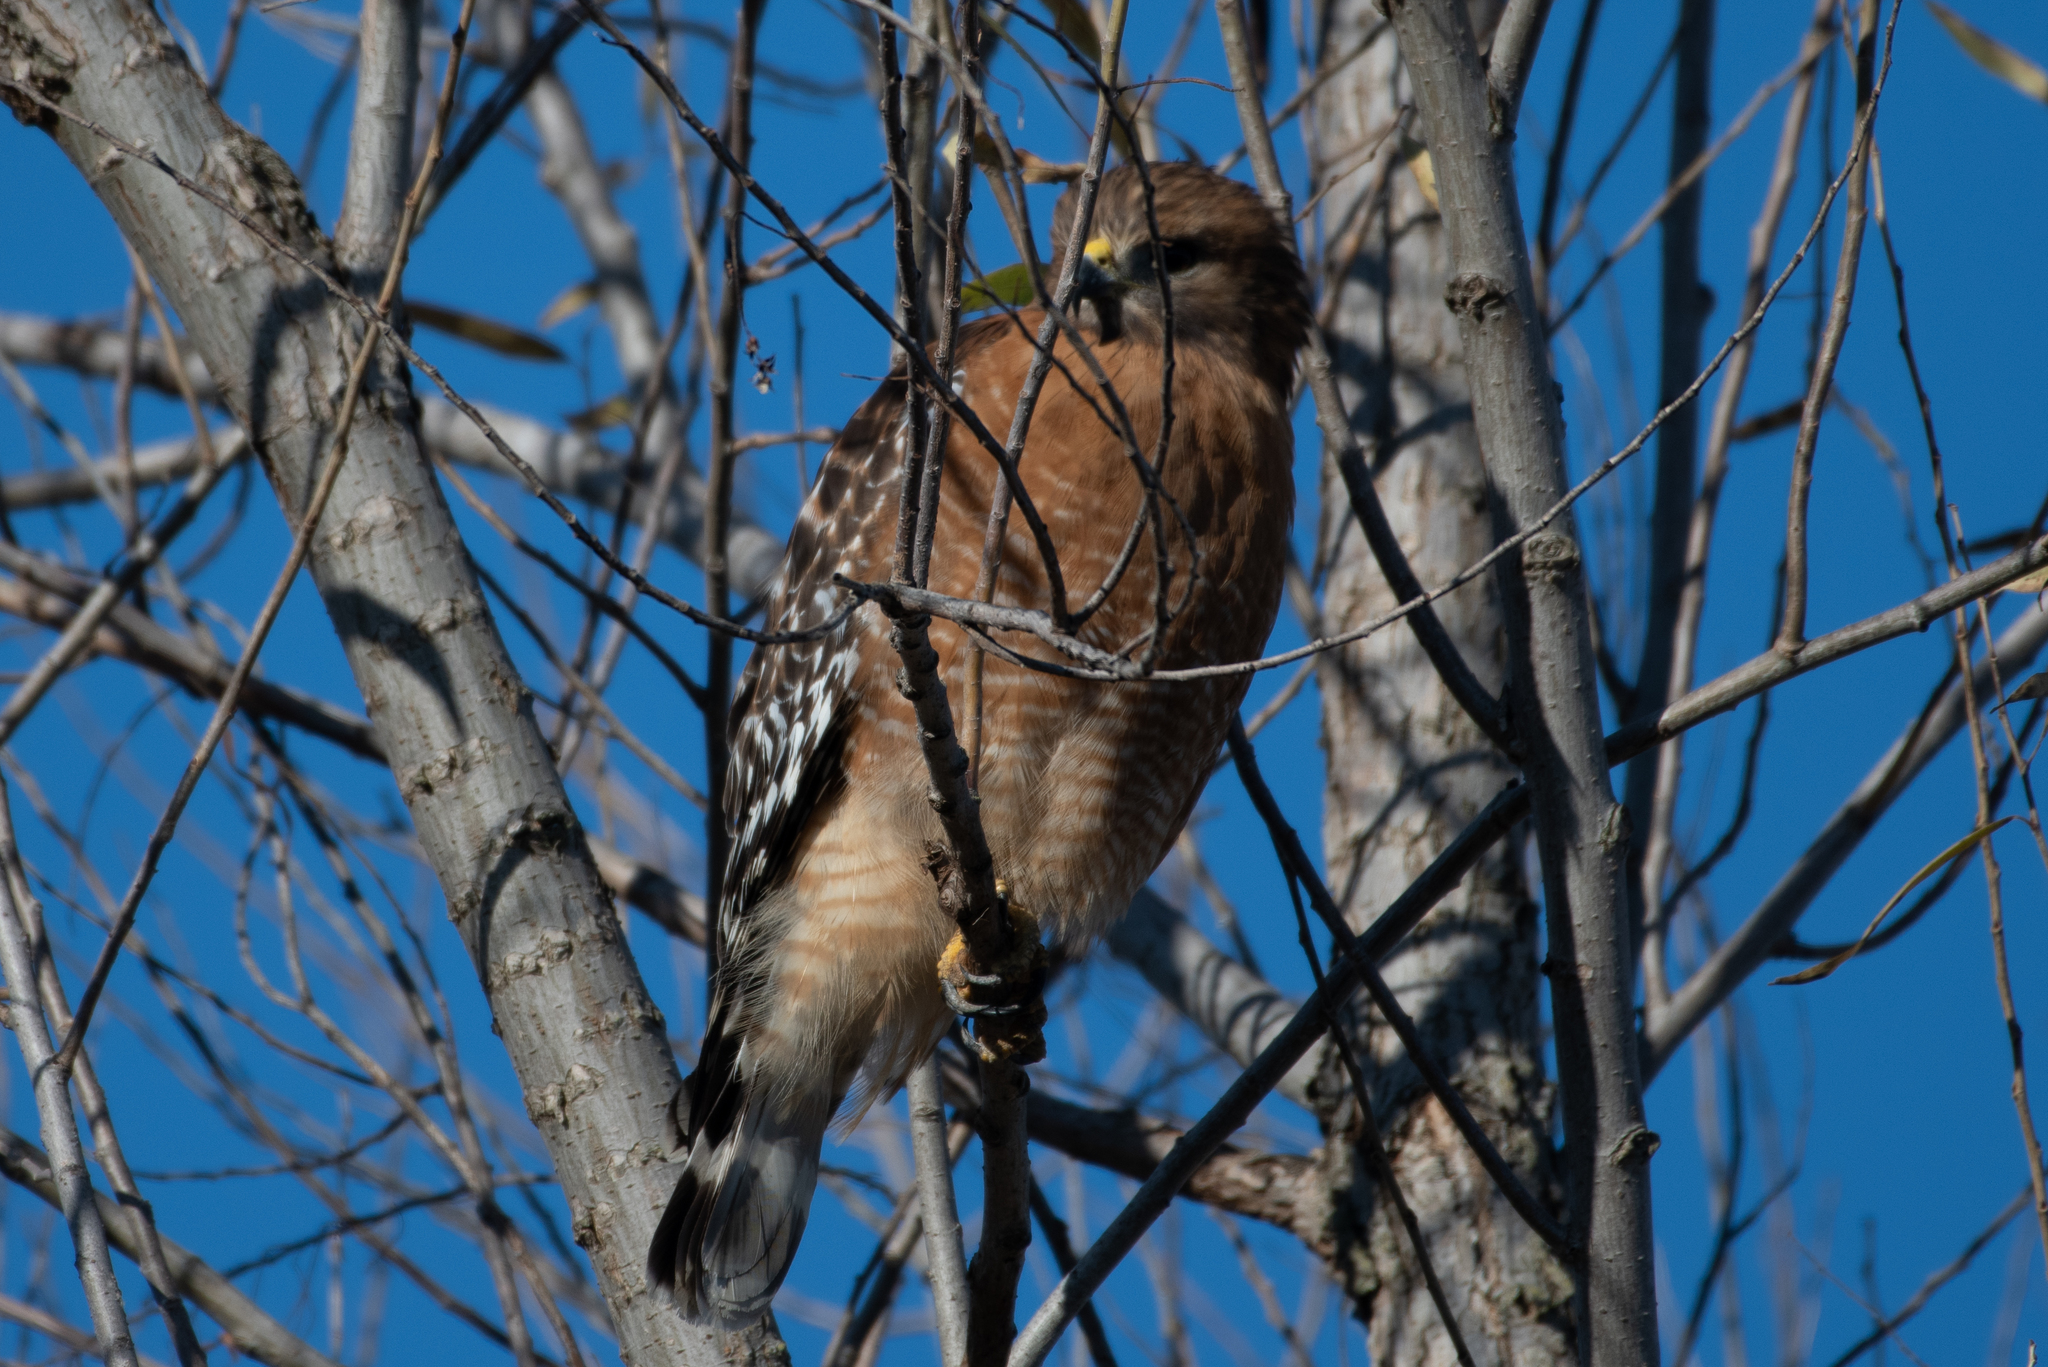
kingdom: Animalia
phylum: Chordata
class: Aves
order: Accipitriformes
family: Accipitridae
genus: Buteo
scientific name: Buteo lineatus
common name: Red-shouldered hawk
